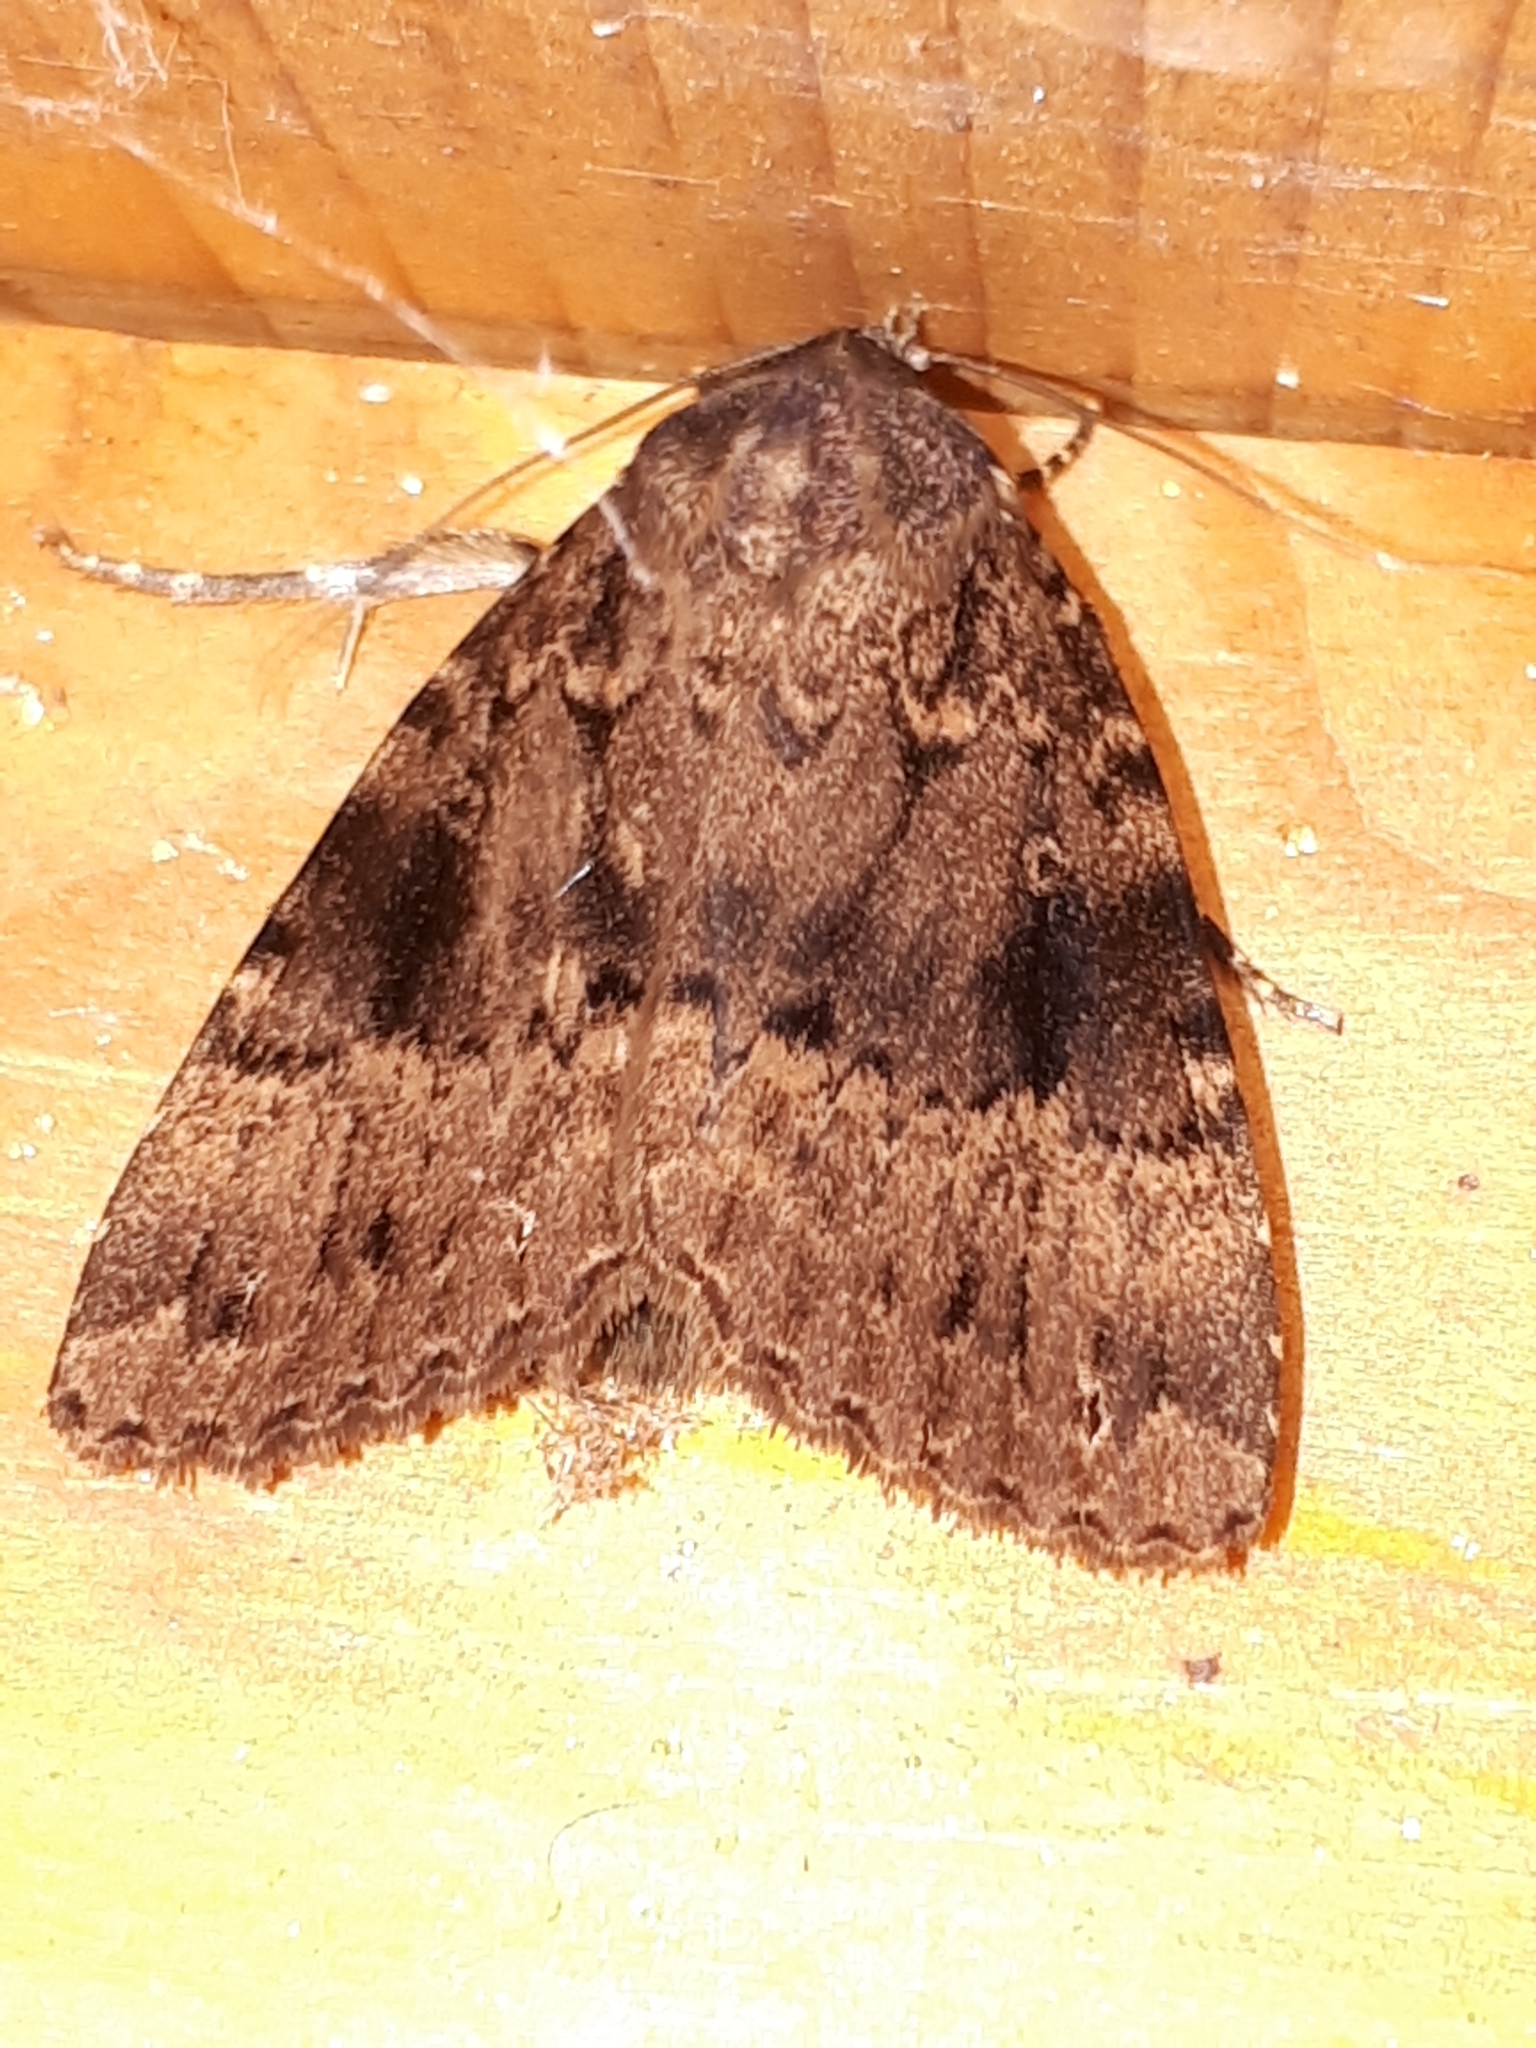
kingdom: Animalia
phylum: Arthropoda
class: Insecta
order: Lepidoptera
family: Noctuidae
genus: Amphipyra
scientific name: Amphipyra pyramidea
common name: Copper underwing
